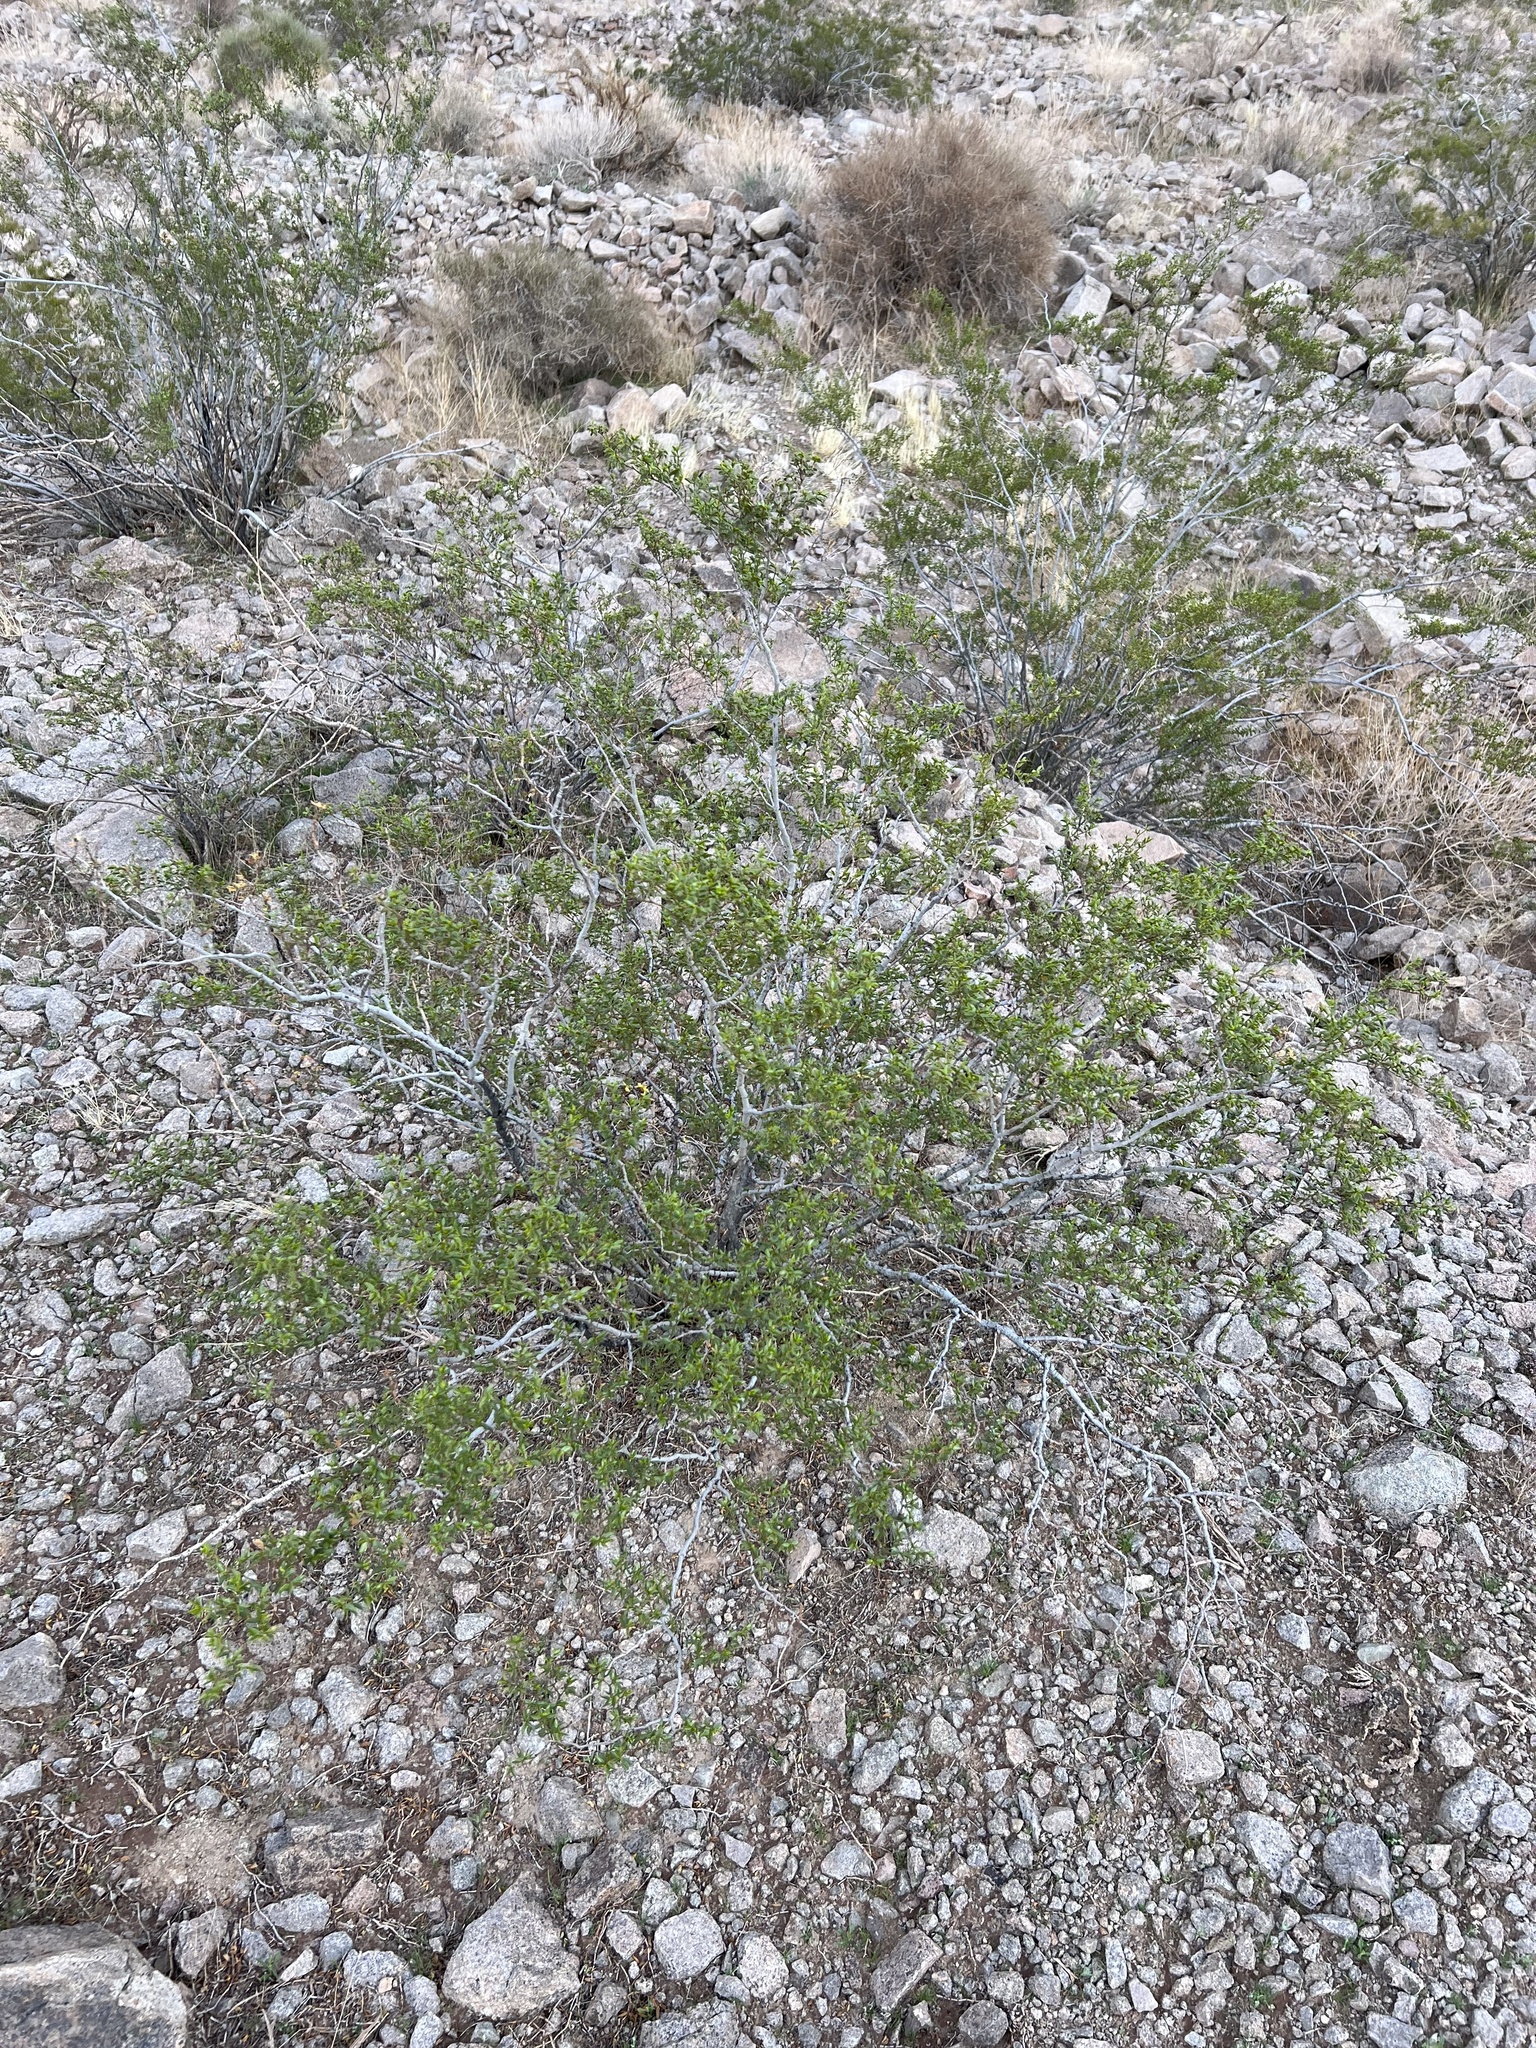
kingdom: Plantae
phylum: Tracheophyta
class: Magnoliopsida
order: Zygophyllales
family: Zygophyllaceae
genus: Larrea
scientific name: Larrea tridentata
